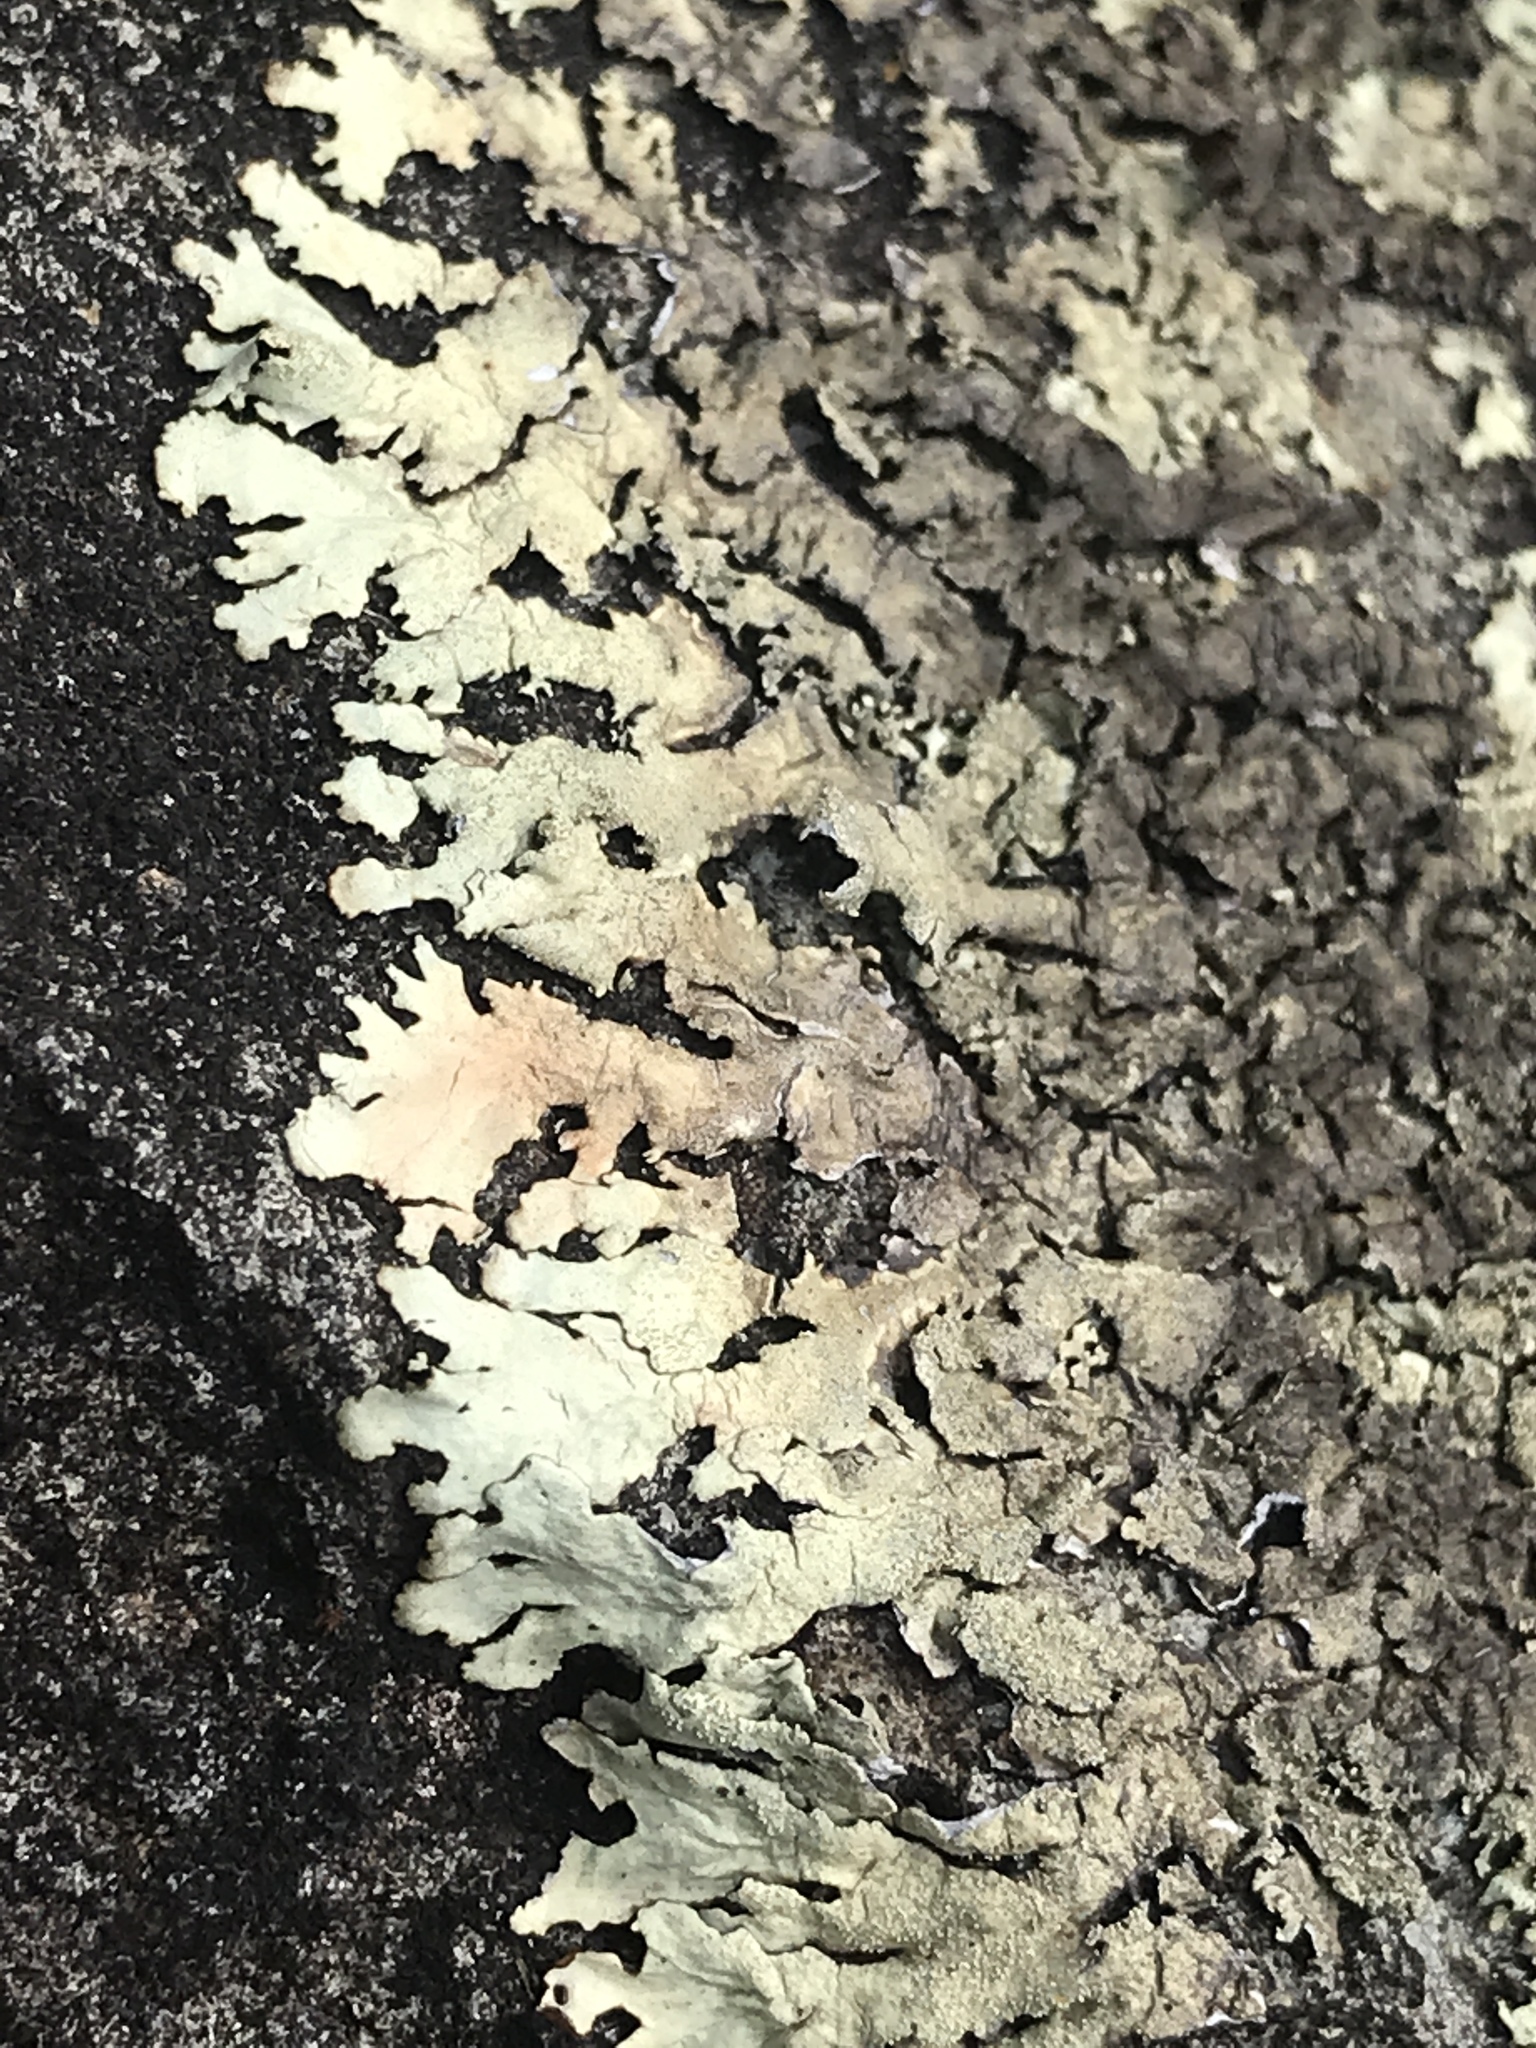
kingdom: Fungi
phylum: Ascomycota
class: Lecanoromycetes
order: Lecanorales
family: Parmeliaceae
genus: Xanthoparmelia
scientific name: Xanthoparmelia cumberlandia
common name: Cumberland rock shield
